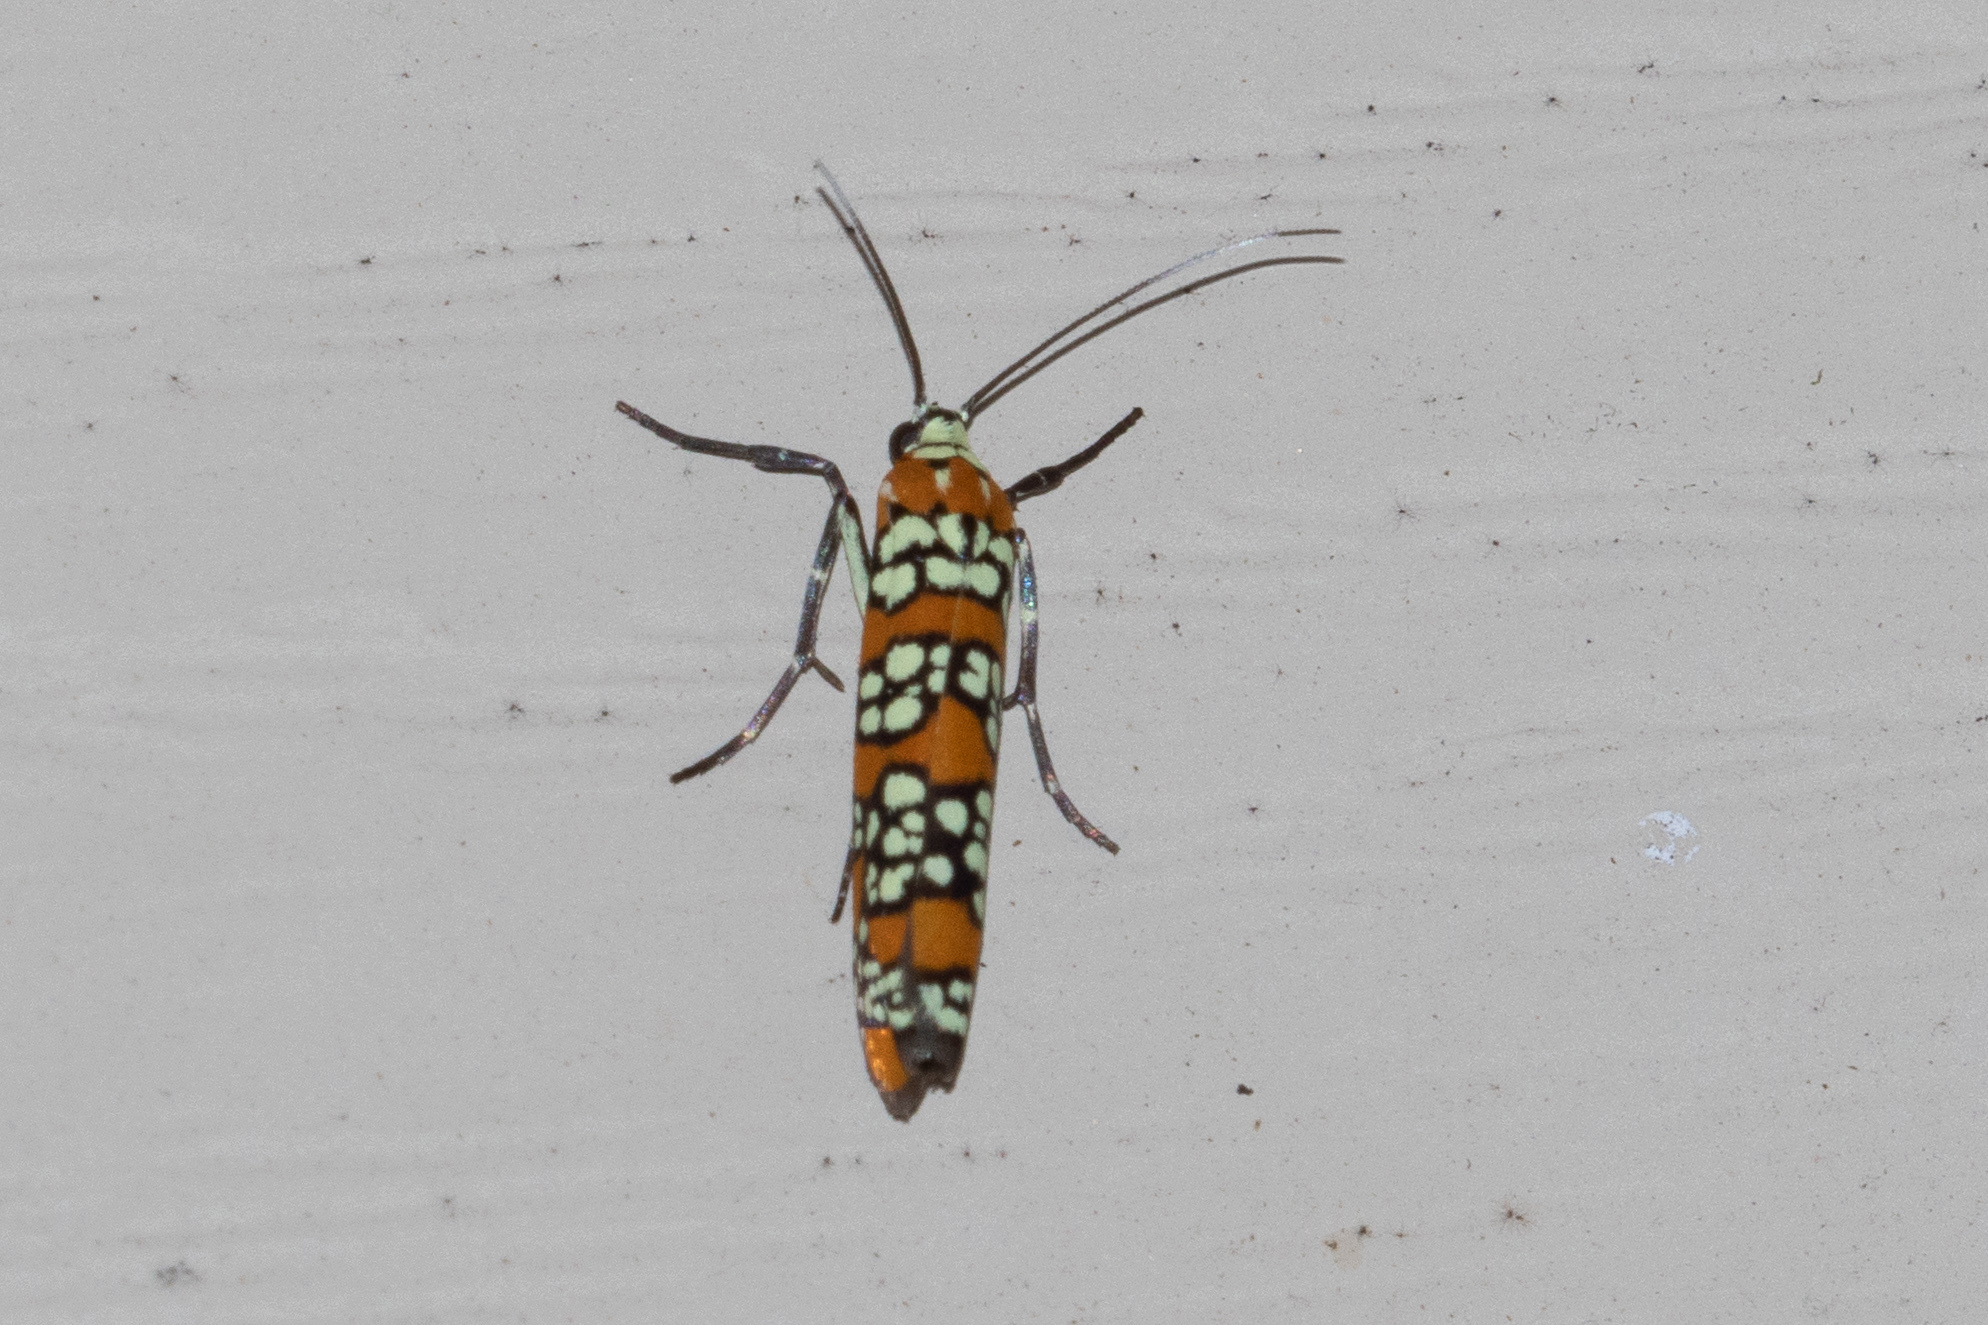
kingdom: Animalia
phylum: Arthropoda
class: Insecta
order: Lepidoptera
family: Attevidae
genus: Atteva
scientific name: Atteva punctella
